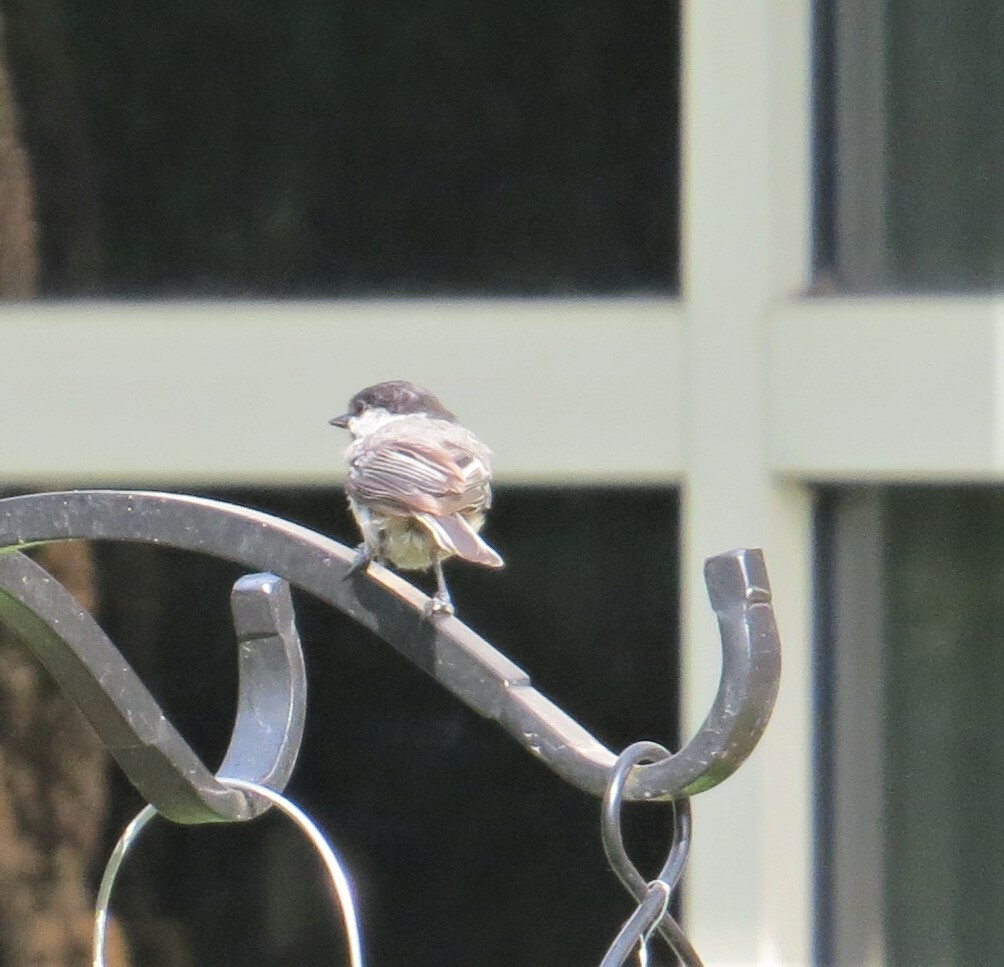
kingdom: Animalia
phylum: Chordata
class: Aves
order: Passeriformes
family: Paridae
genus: Poecile
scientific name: Poecile atricapillus
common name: Black-capped chickadee
